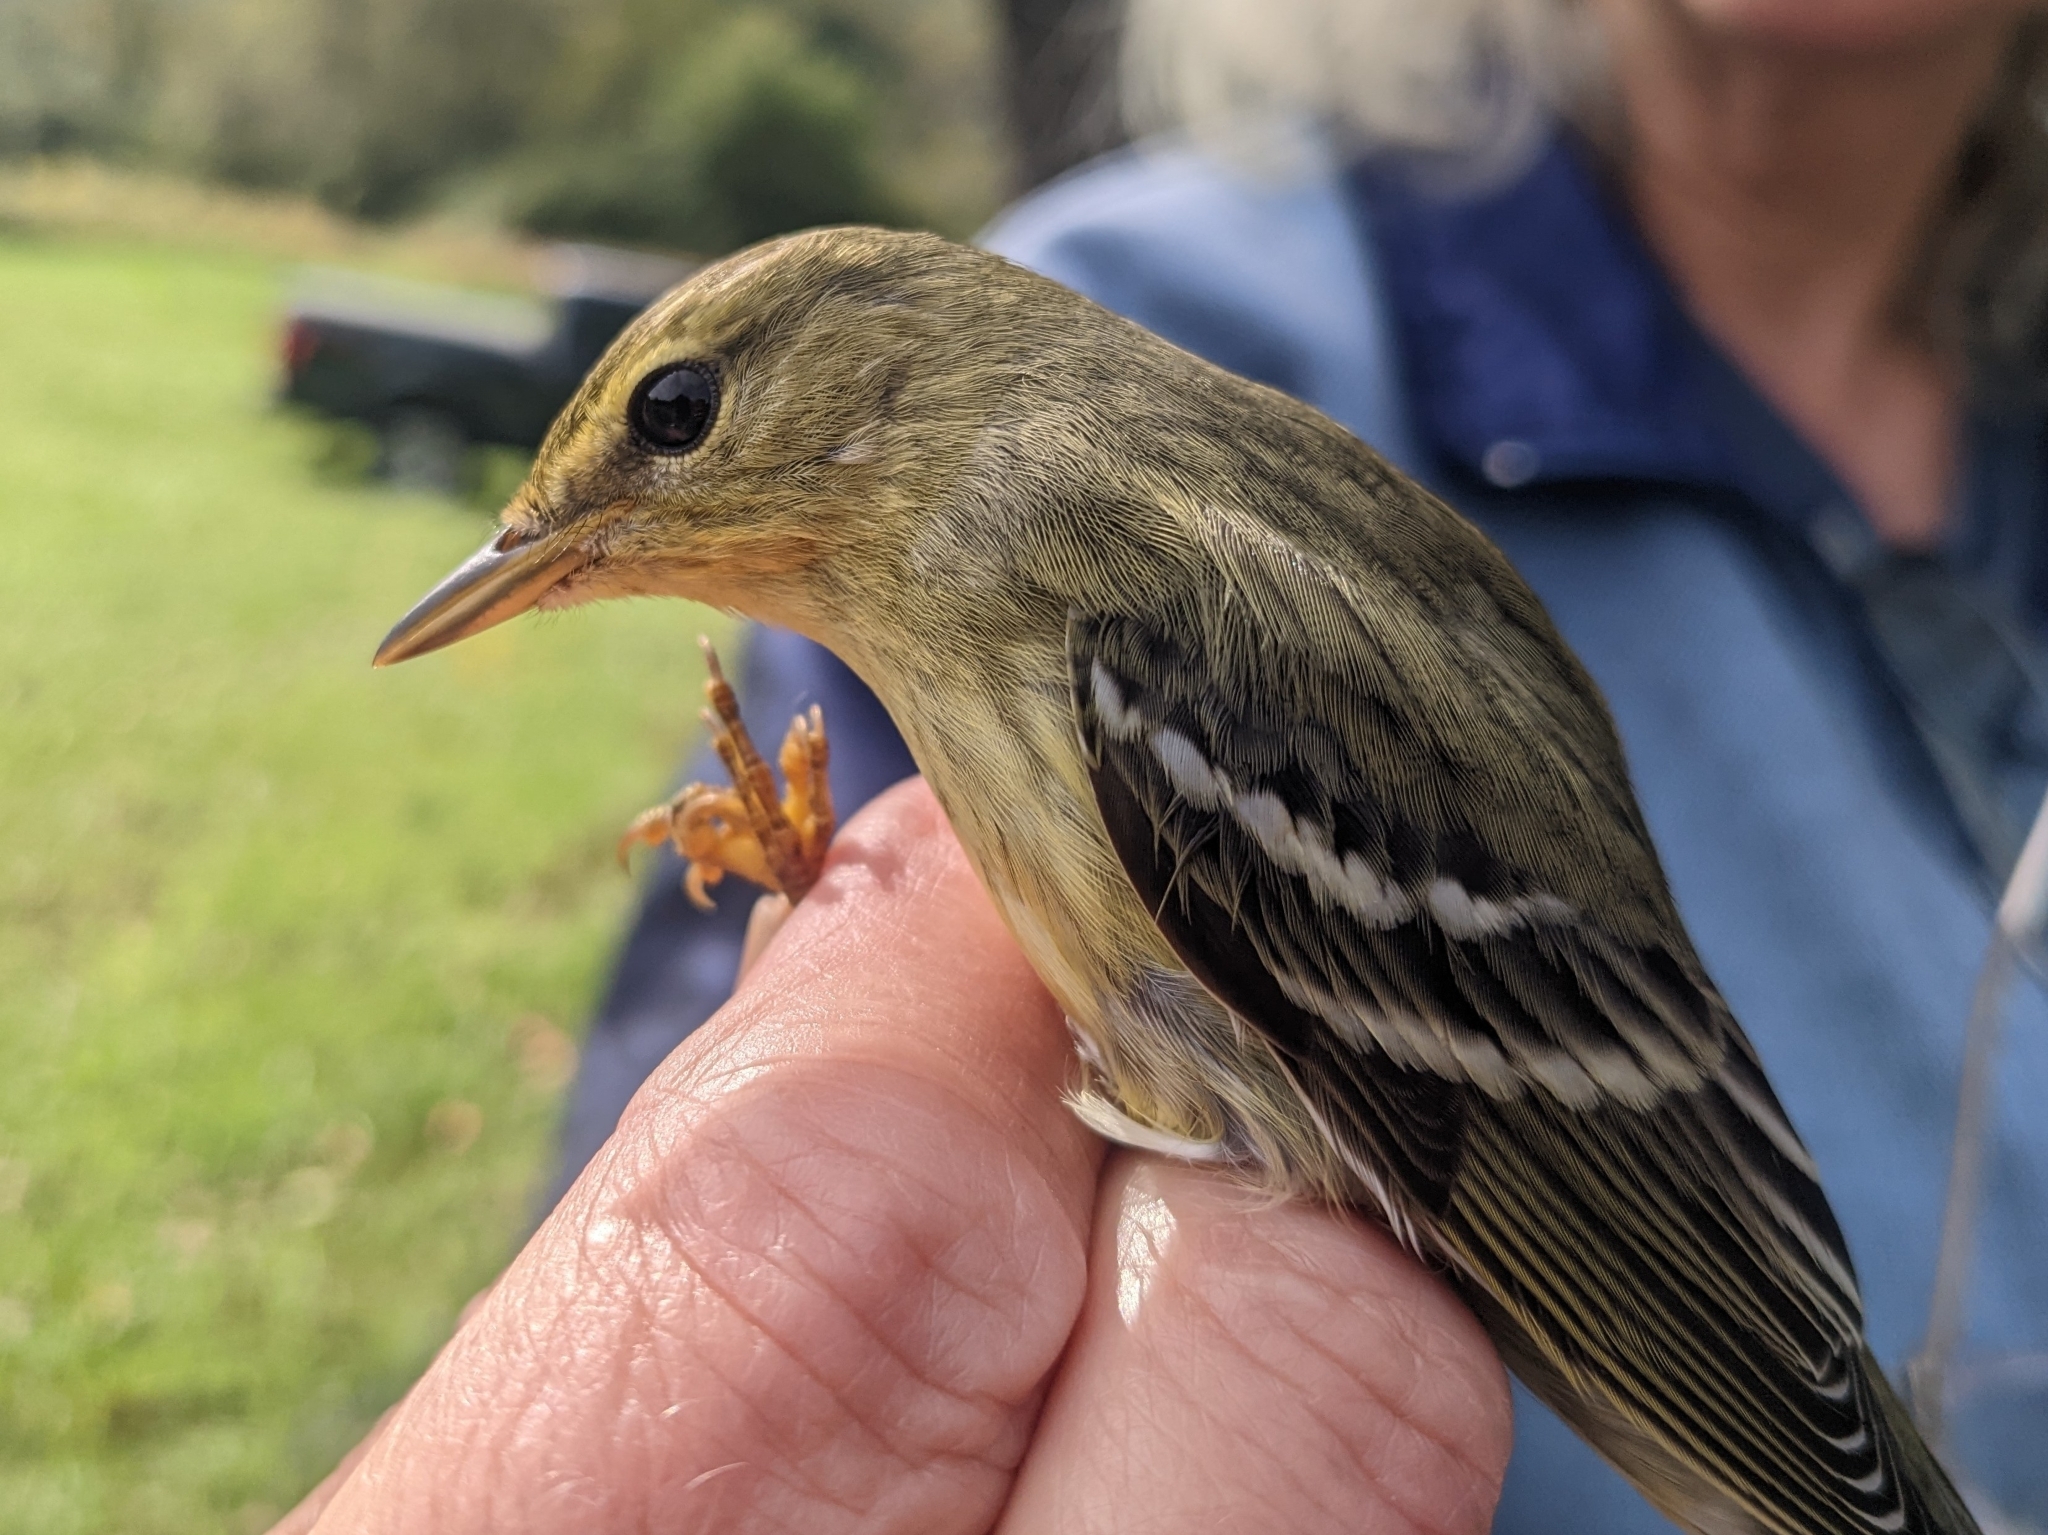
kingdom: Animalia
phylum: Chordata
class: Aves
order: Passeriformes
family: Parulidae
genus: Setophaga
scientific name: Setophaga striata
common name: Blackpoll warbler
